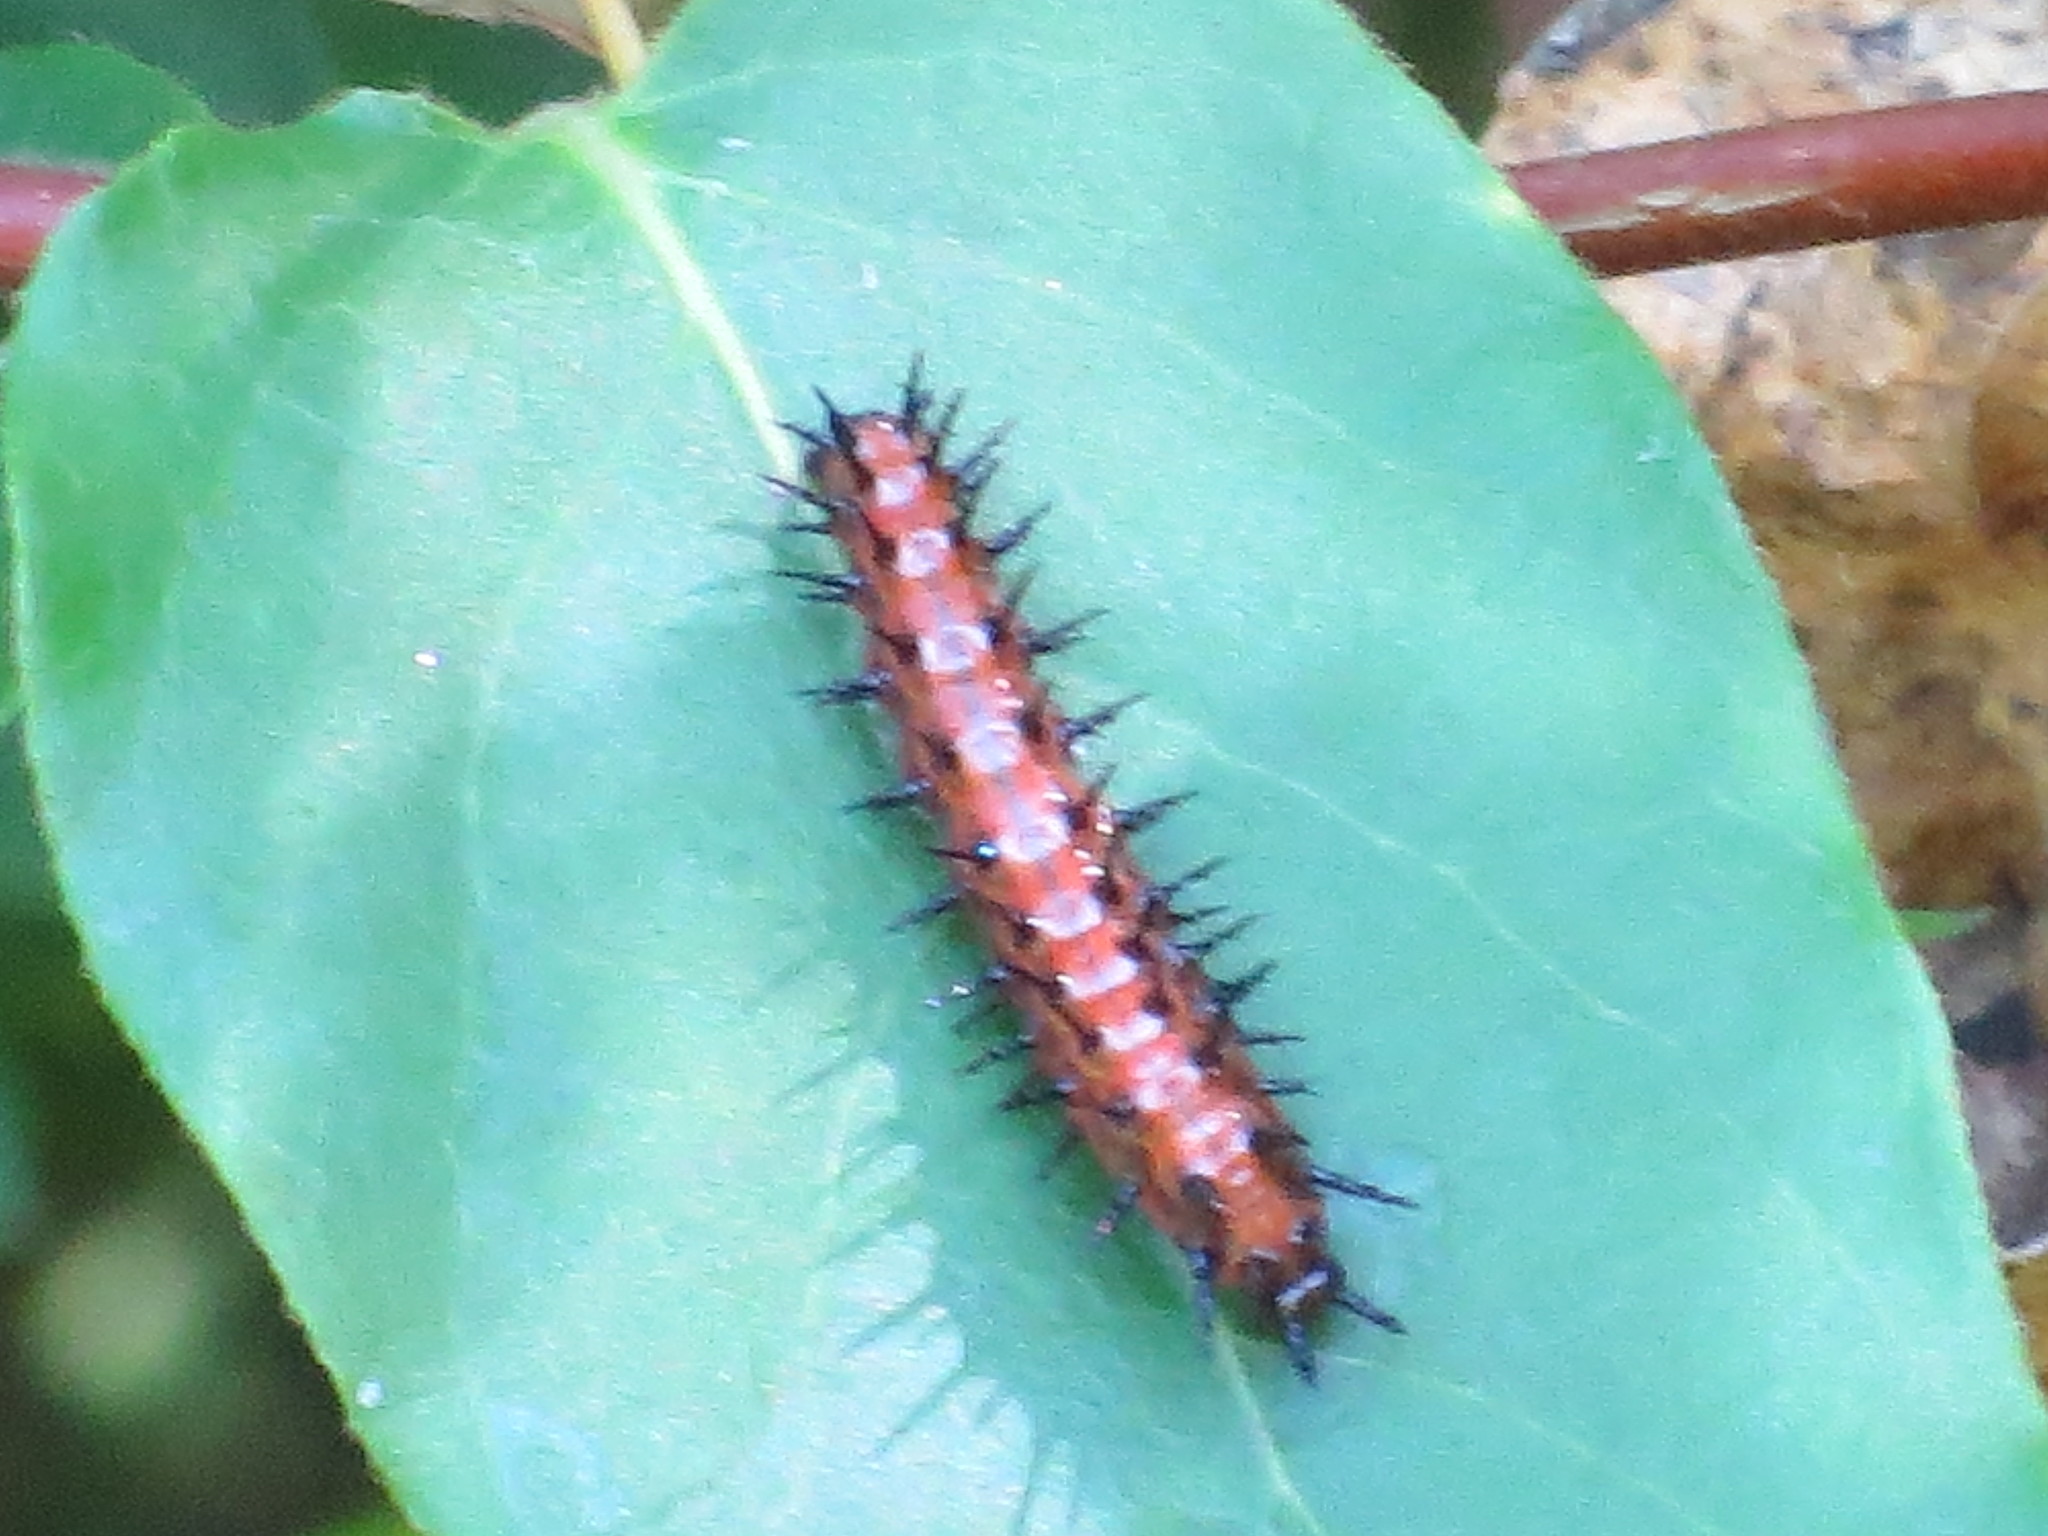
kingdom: Animalia
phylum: Arthropoda
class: Insecta
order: Lepidoptera
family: Nymphalidae
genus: Dione
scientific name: Dione vanillae
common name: Gulf fritillary
